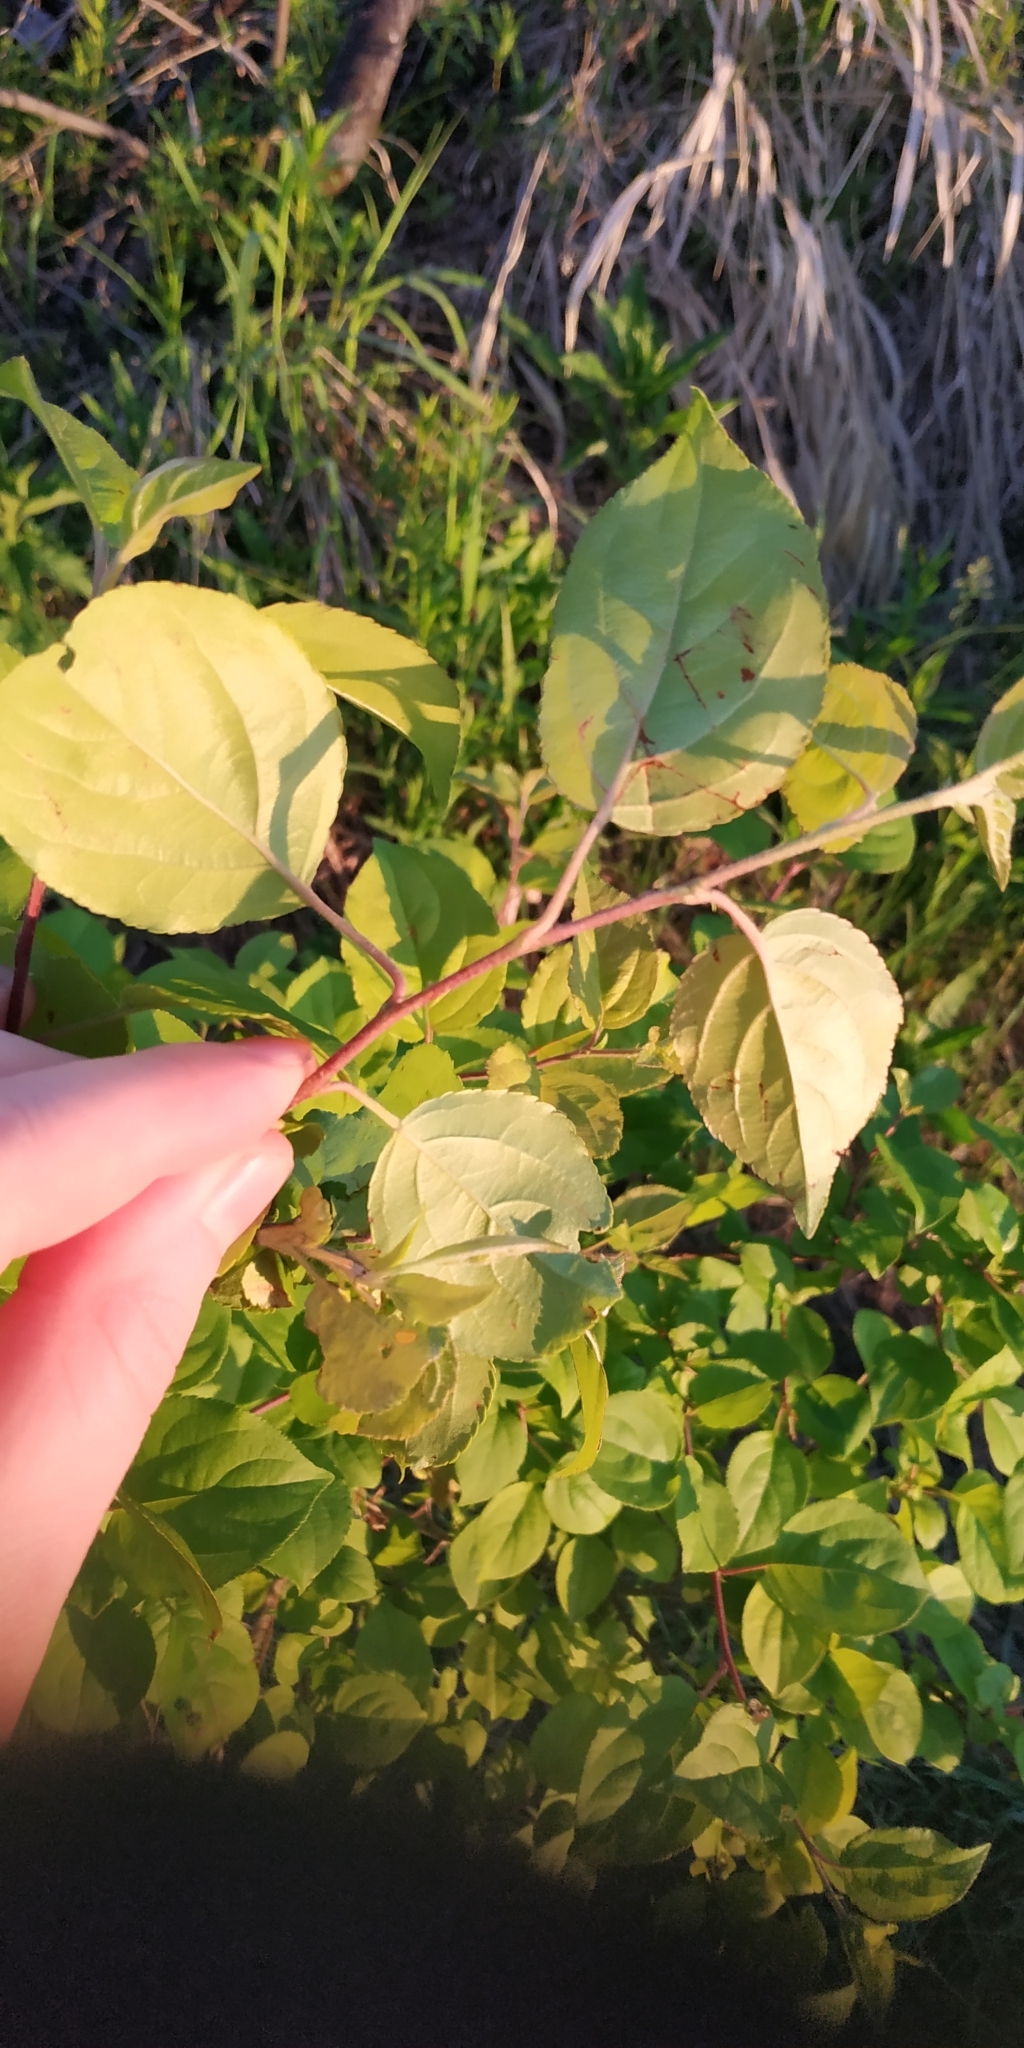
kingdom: Plantae
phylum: Tracheophyta
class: Magnoliopsida
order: Rosales
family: Rosaceae
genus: Malus
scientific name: Malus domestica
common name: Apple
